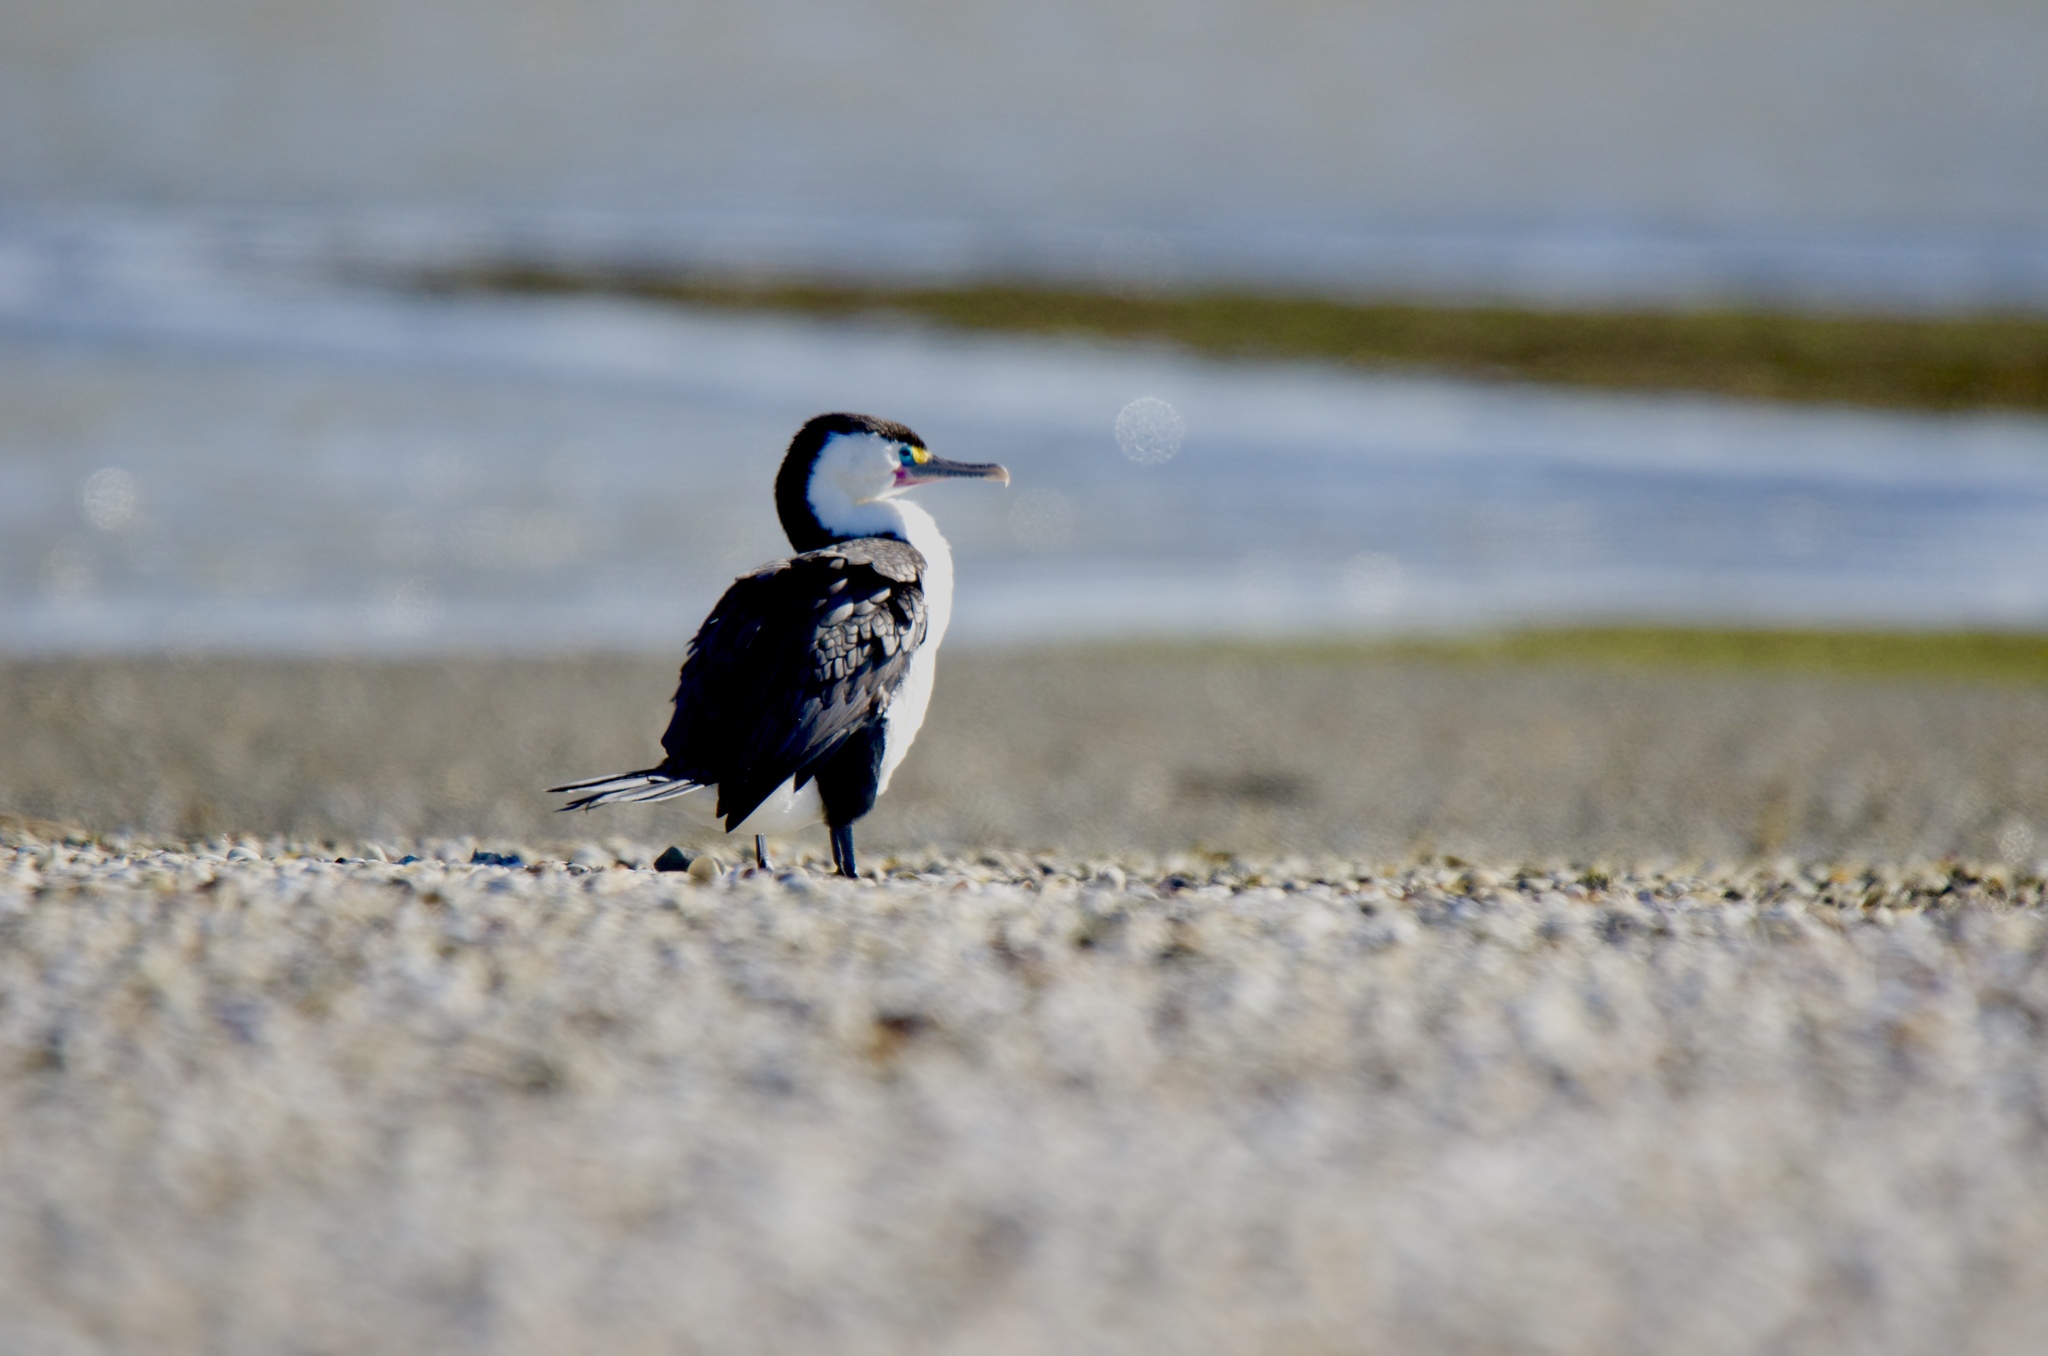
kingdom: Animalia
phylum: Chordata
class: Aves
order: Suliformes
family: Phalacrocoracidae
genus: Phalacrocorax
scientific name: Phalacrocorax varius
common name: Pied cormorant
